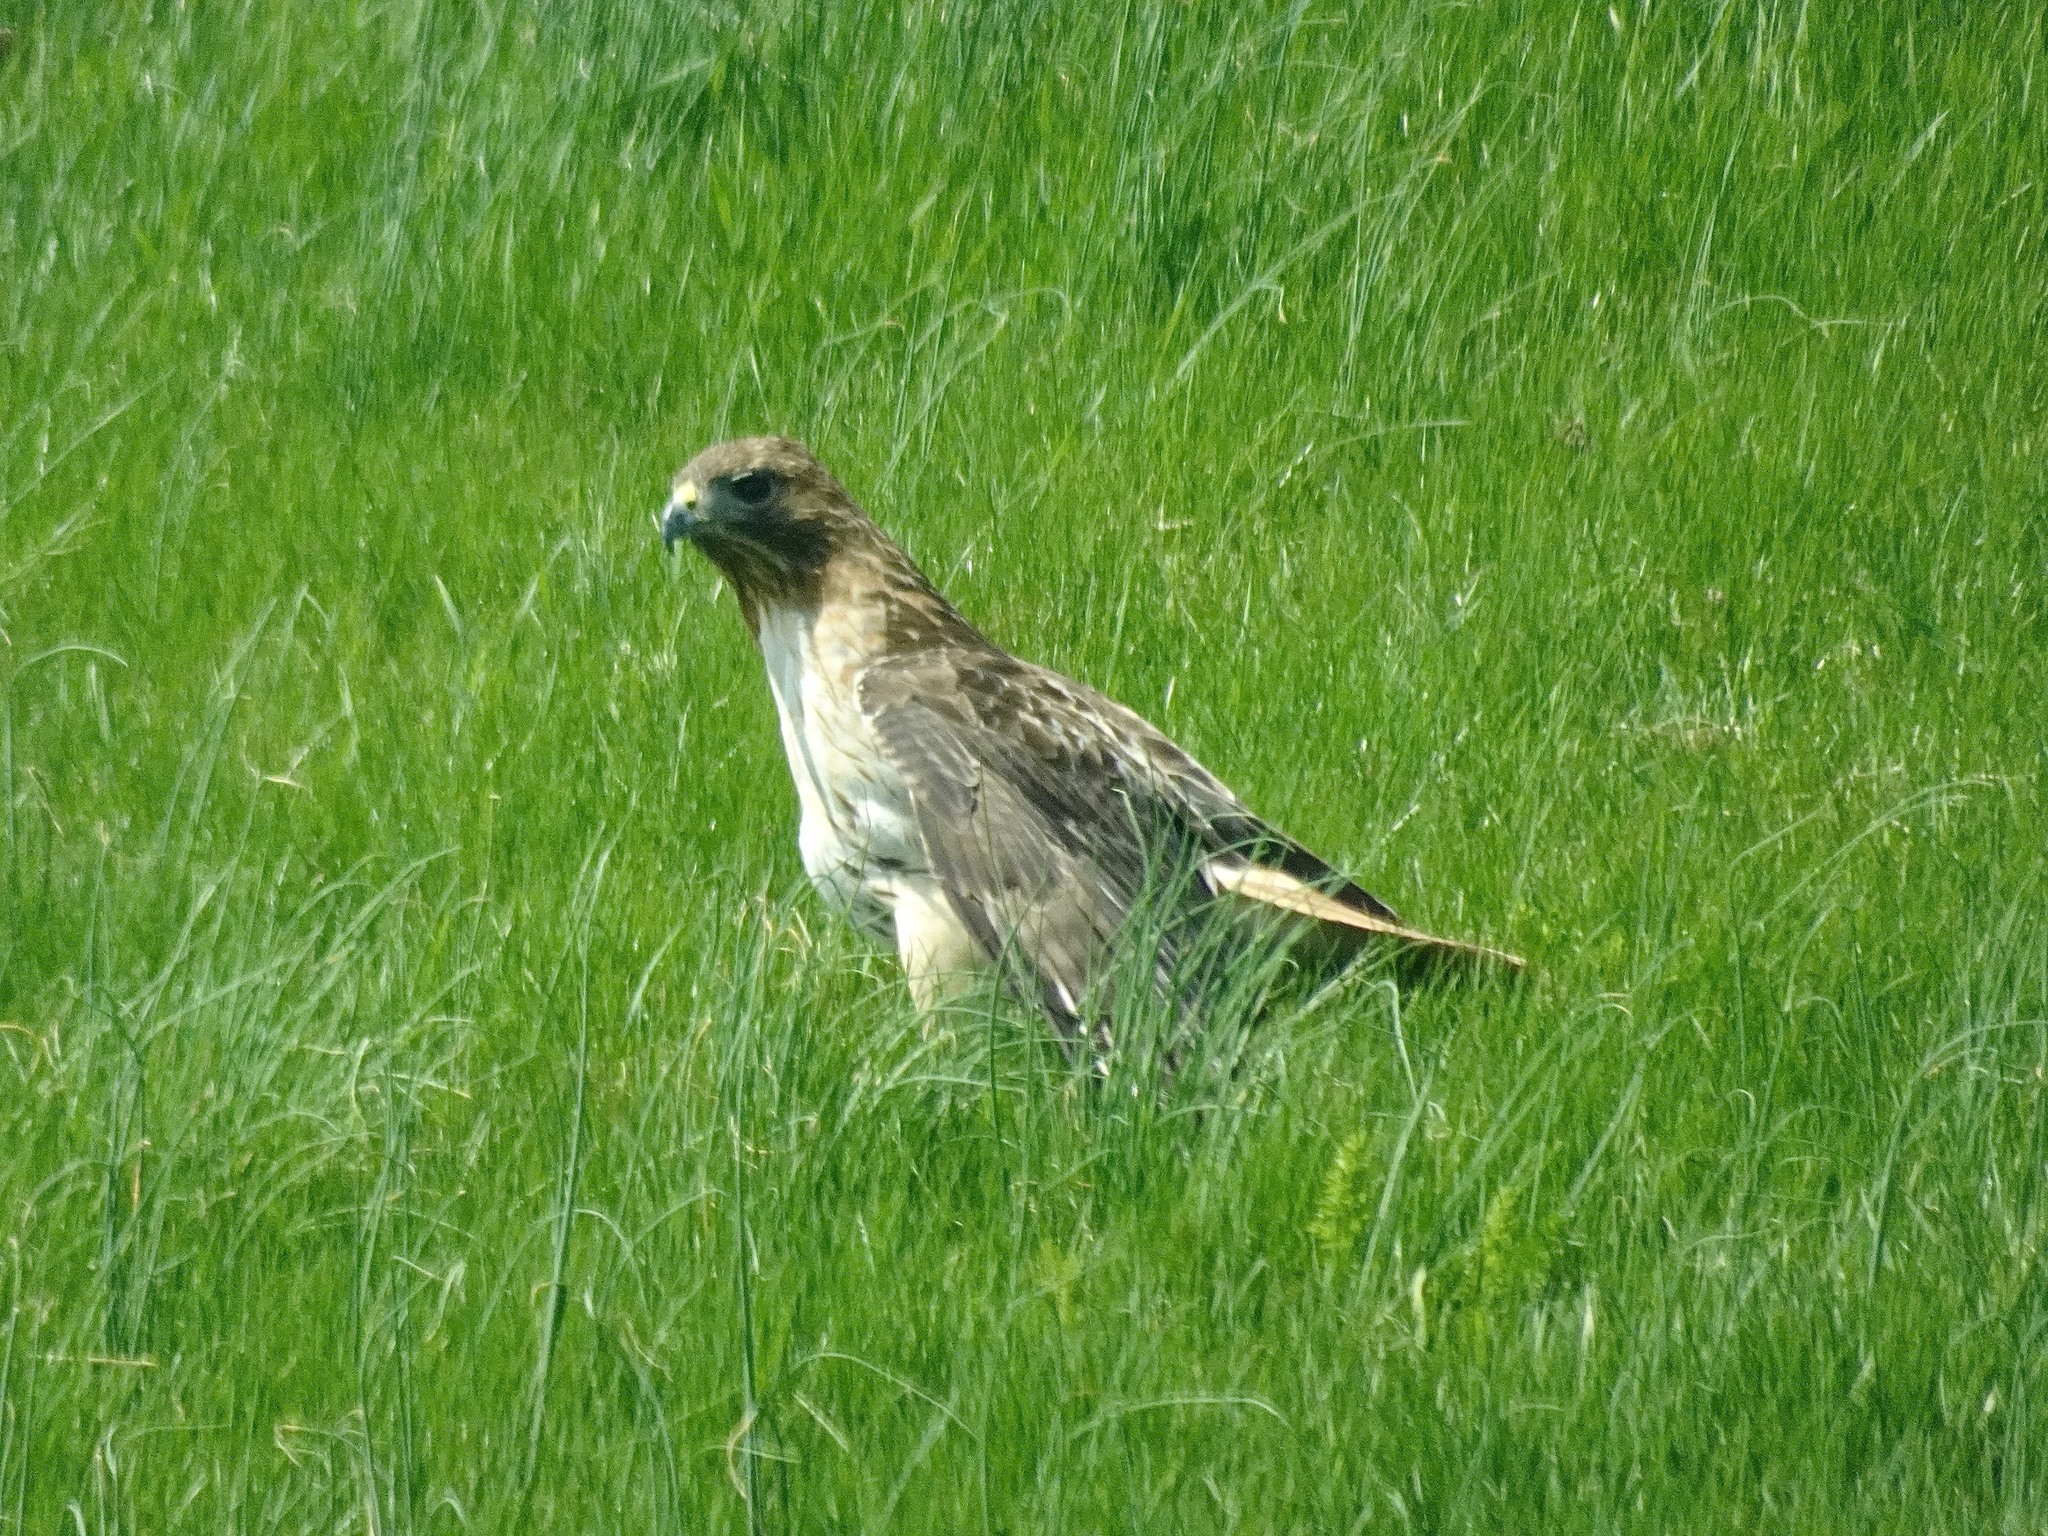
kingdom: Animalia
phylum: Chordata
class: Aves
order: Accipitriformes
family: Accipitridae
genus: Buteo
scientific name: Buteo jamaicensis
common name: Red-tailed hawk
